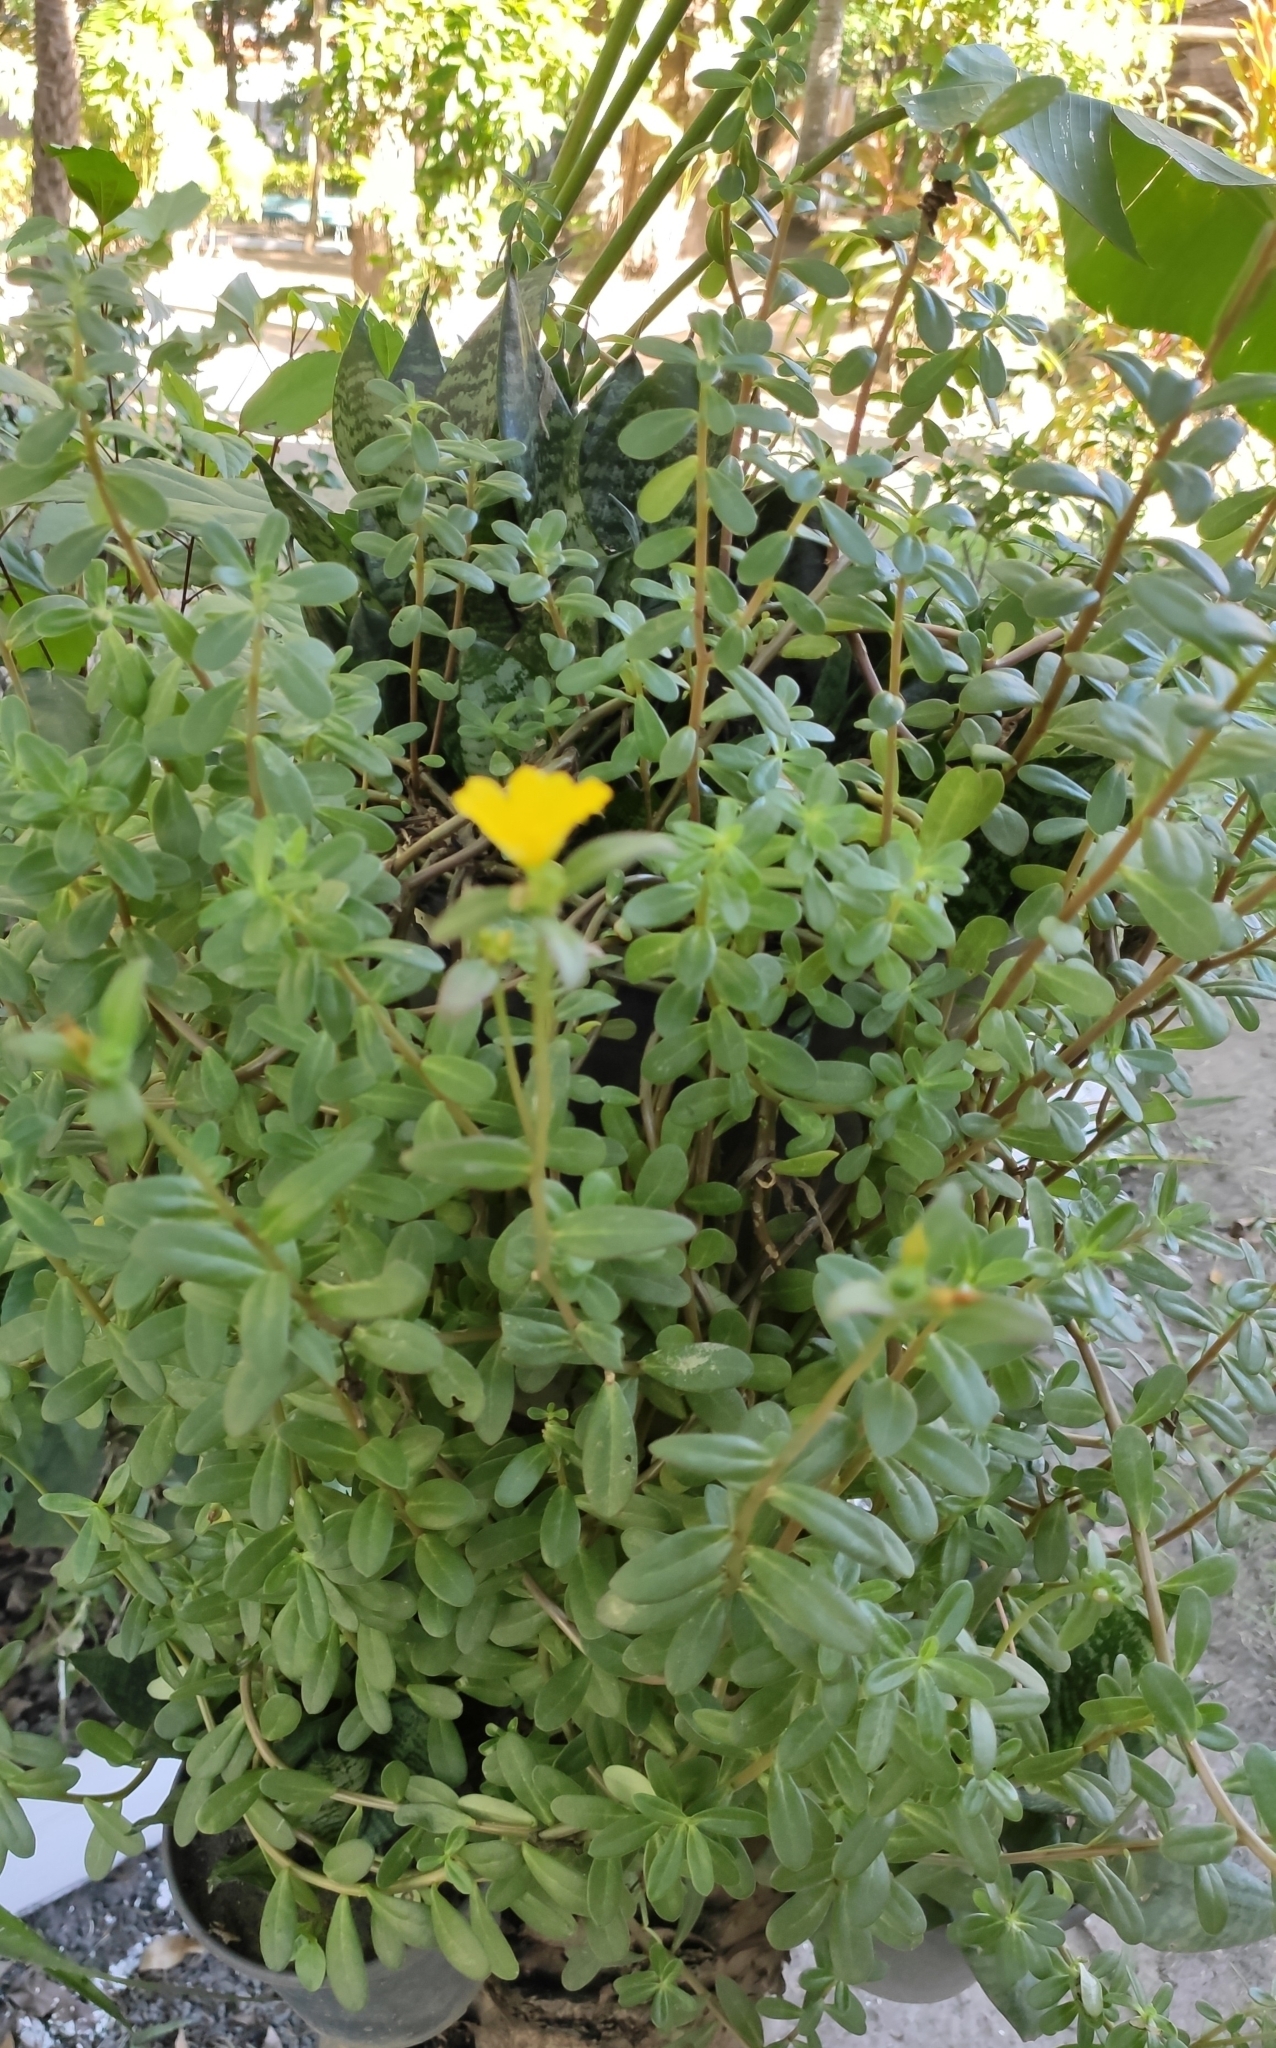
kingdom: Plantae
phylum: Tracheophyta
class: Magnoliopsida
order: Caryophyllales
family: Portulacaceae
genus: Portulaca
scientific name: Portulaca umbraticola
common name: Wingpod purslane
